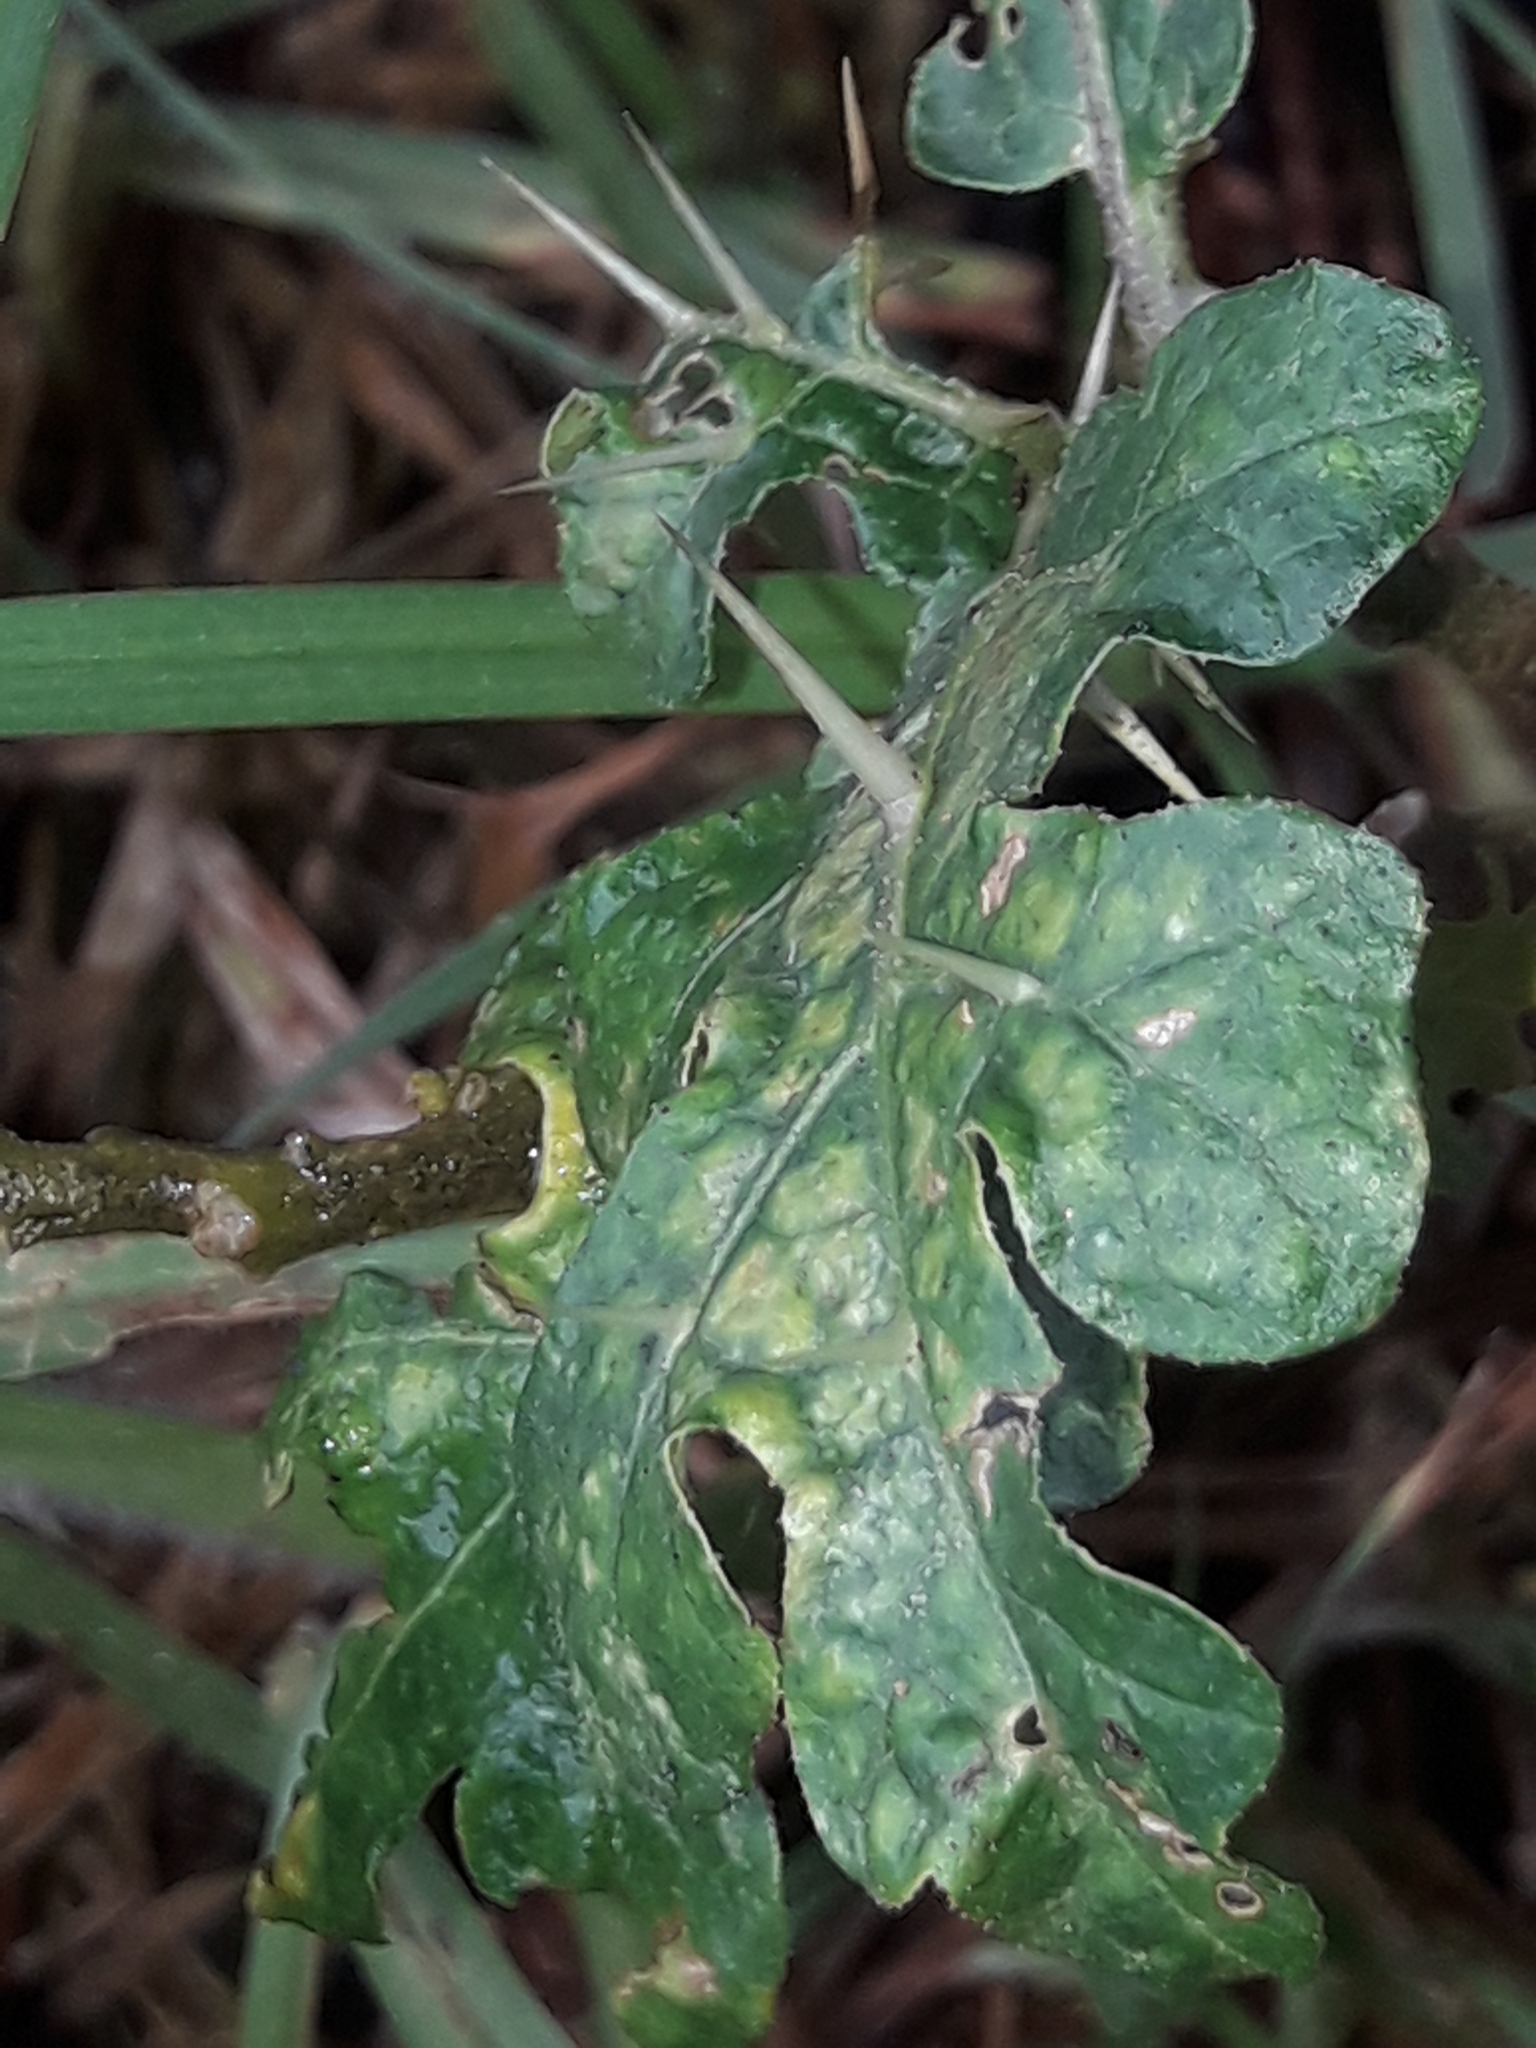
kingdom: Plantae
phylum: Tracheophyta
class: Magnoliopsida
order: Solanales
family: Solanaceae
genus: Solanum
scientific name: Solanum linnaeanum
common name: Nightshade
